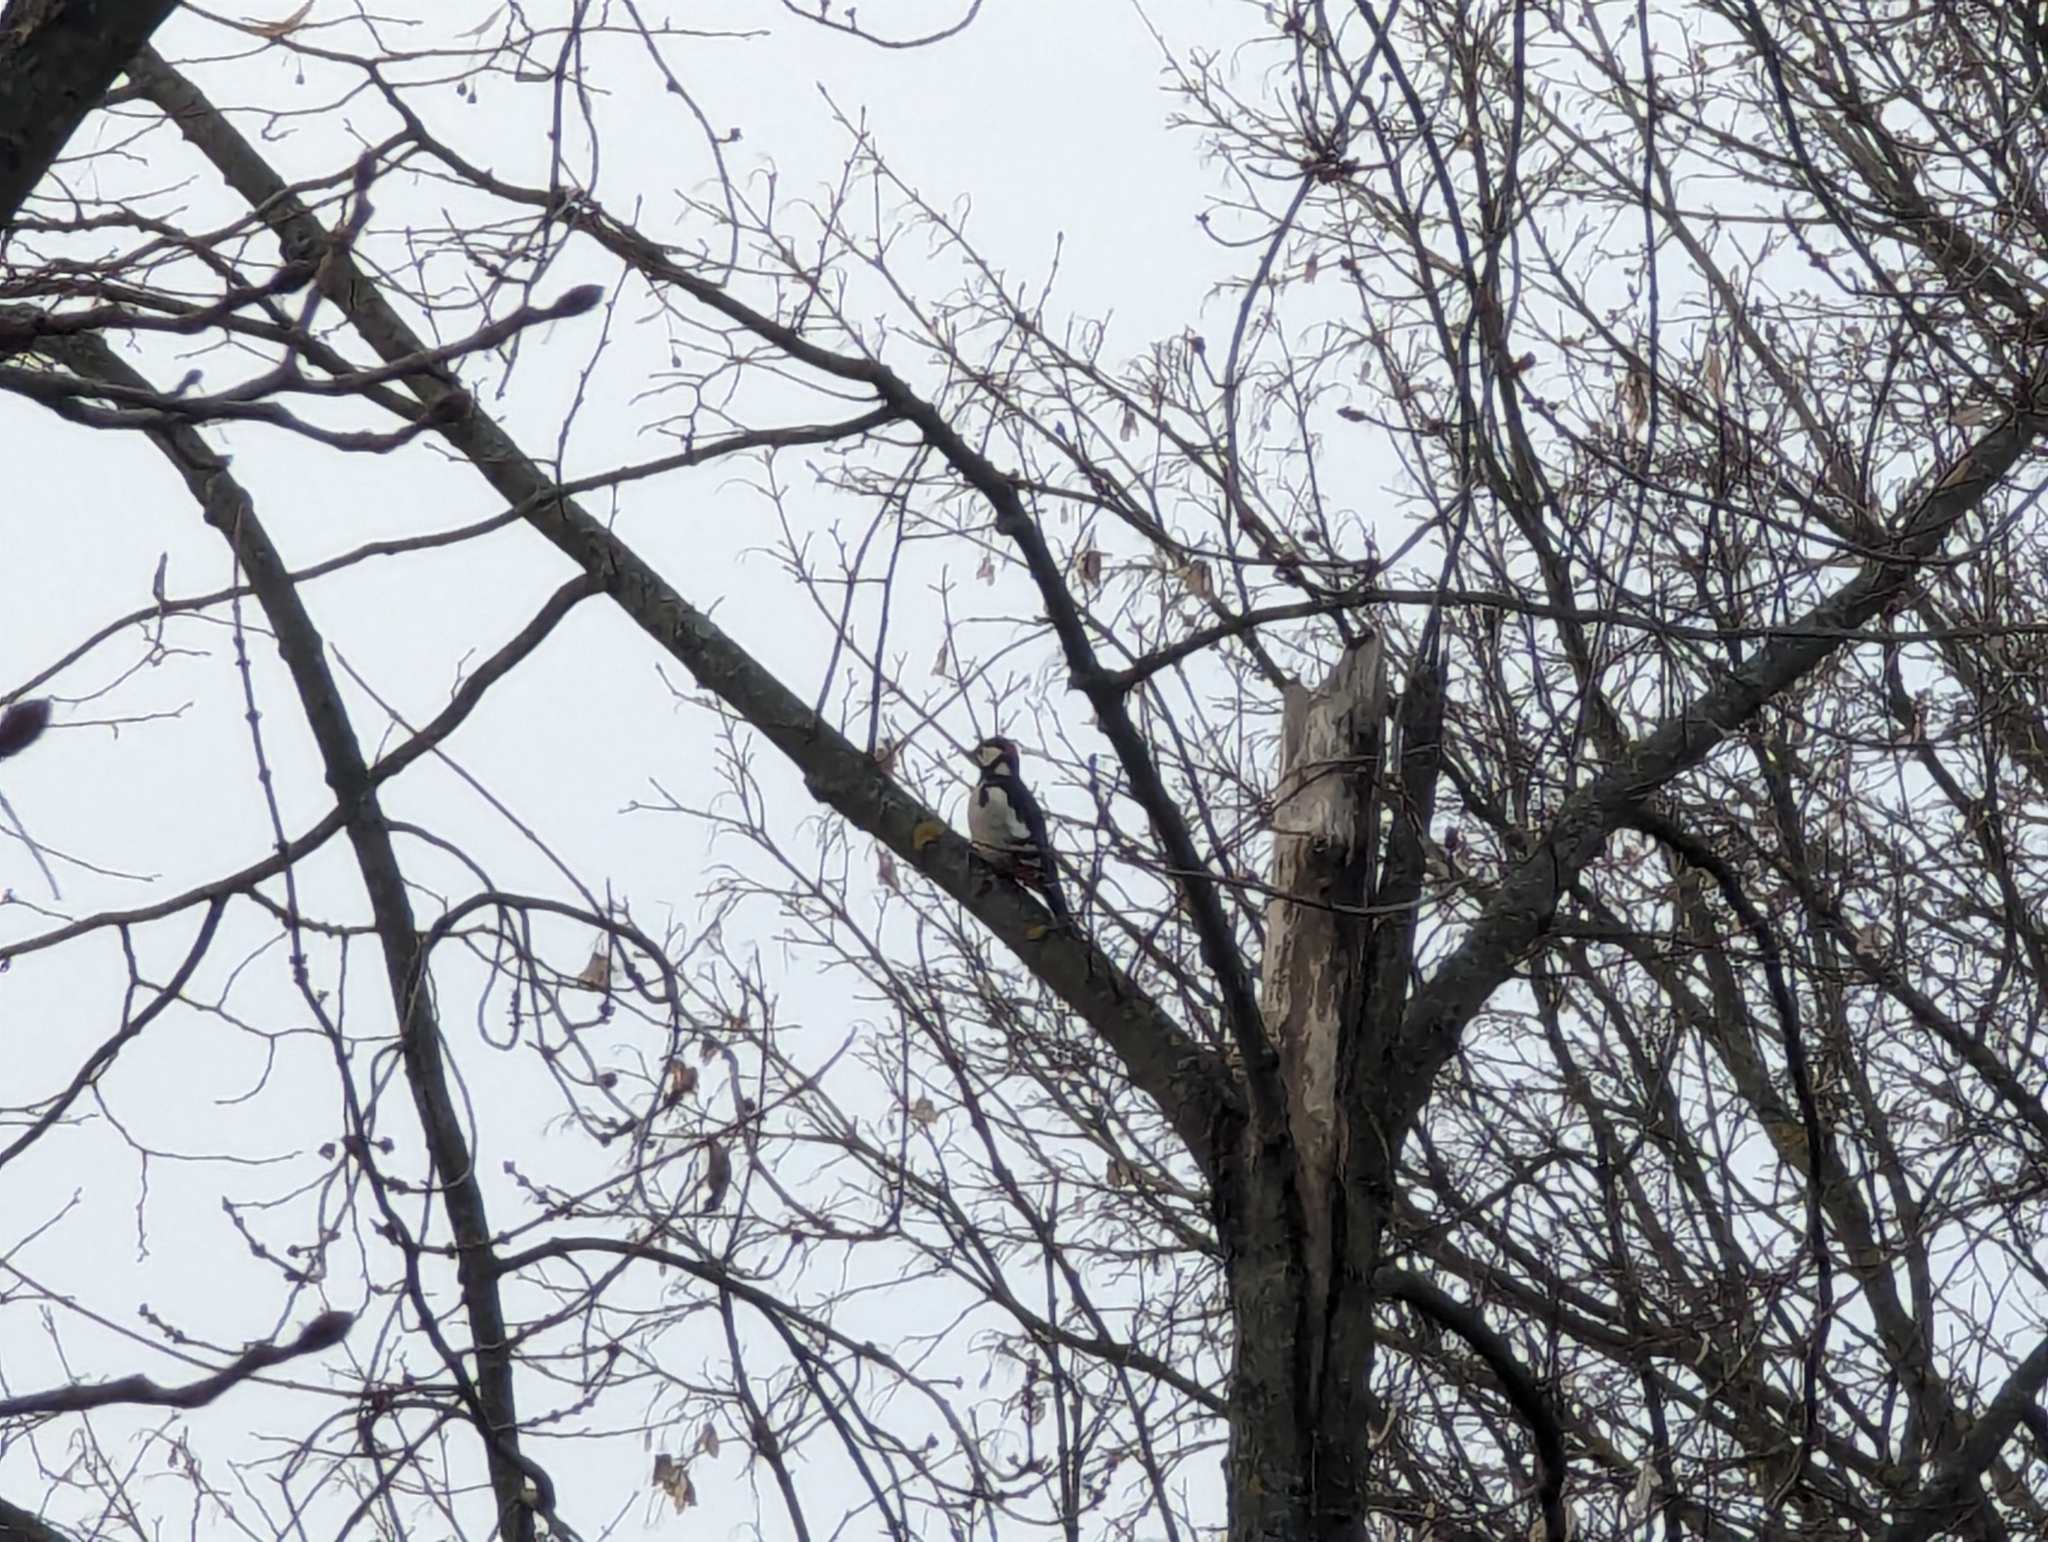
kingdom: Animalia
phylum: Chordata
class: Aves
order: Piciformes
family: Picidae
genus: Dendrocopos
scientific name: Dendrocopos major
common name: Great spotted woodpecker
